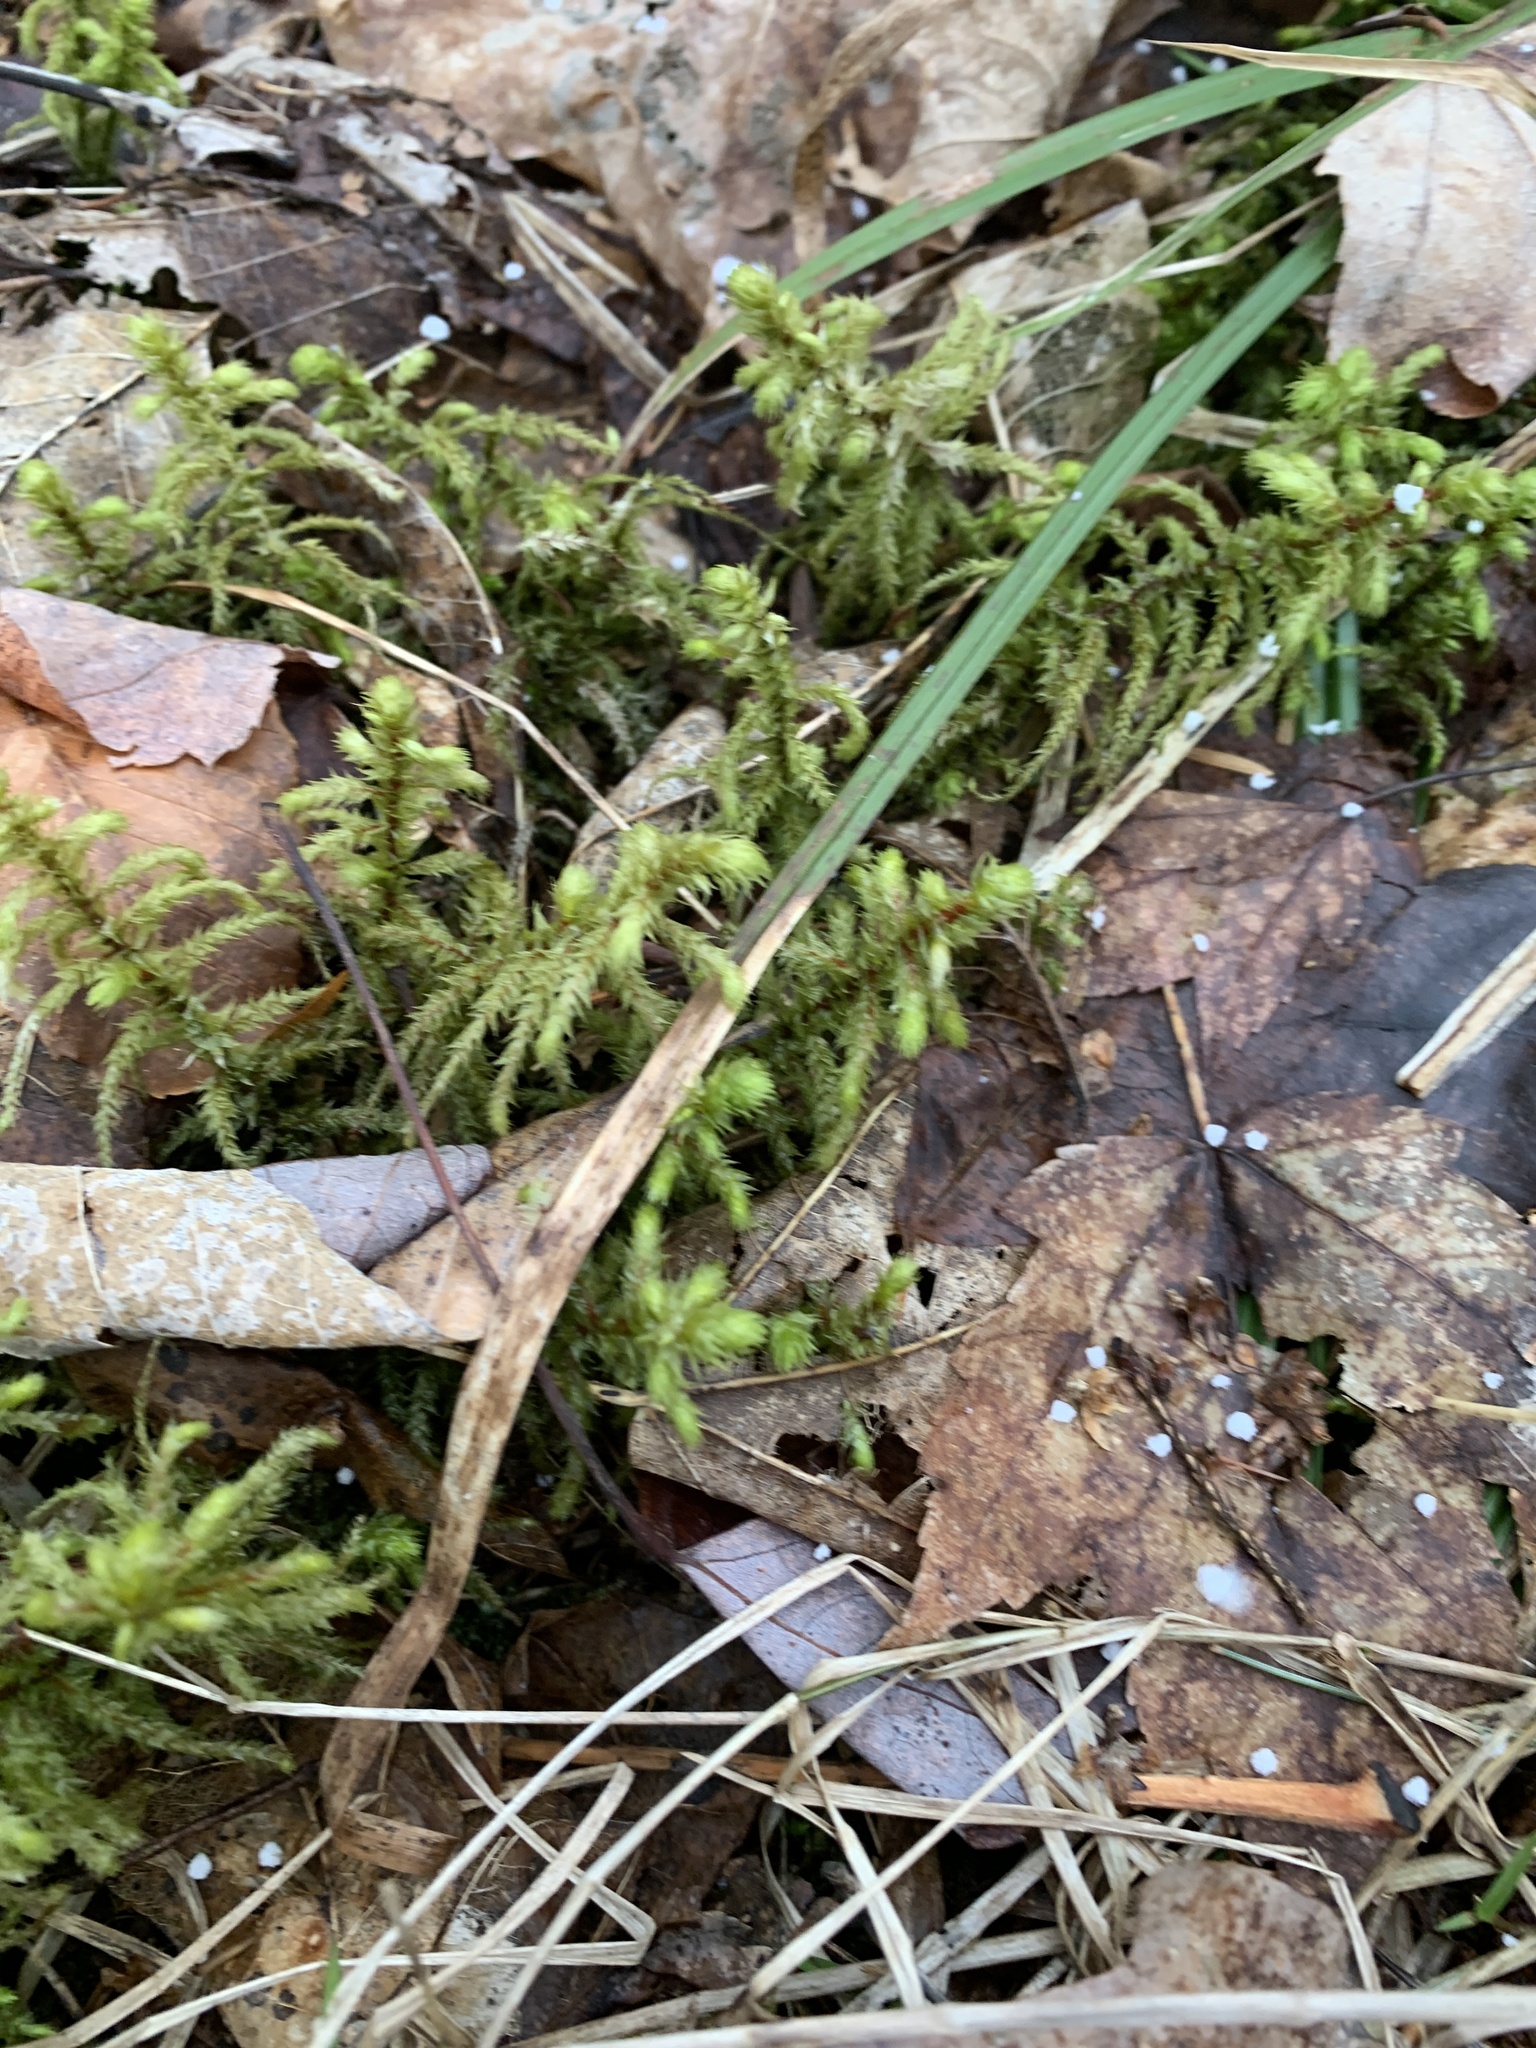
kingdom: Plantae
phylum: Bryophyta
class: Bryopsida
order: Hypnales
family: Hylocomiaceae
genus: Hylocomiadelphus
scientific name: Hylocomiadelphus triquetrus
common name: Rough goose neck moss
